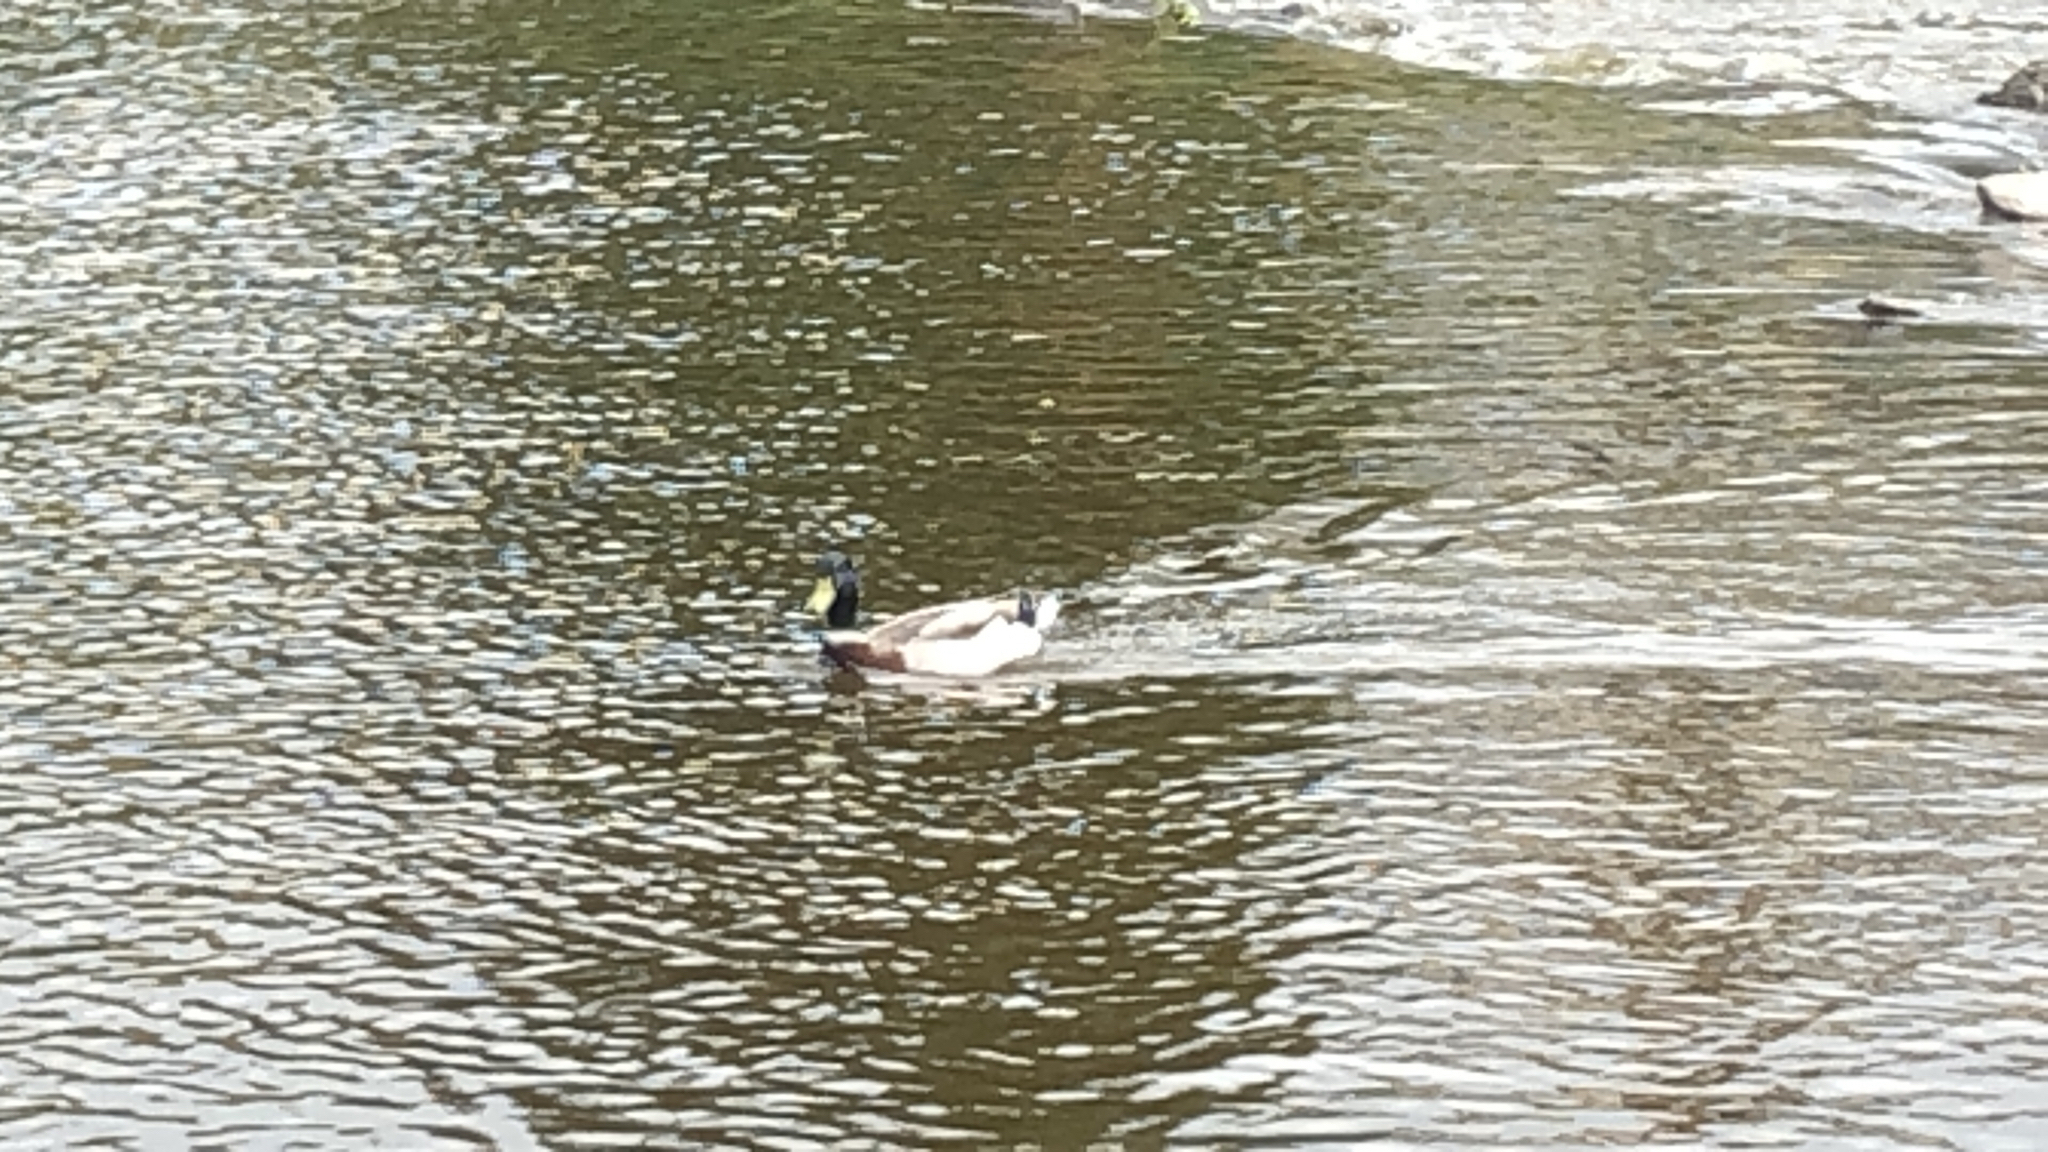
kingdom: Animalia
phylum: Chordata
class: Aves
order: Anseriformes
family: Anatidae
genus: Anas
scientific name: Anas platyrhynchos
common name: Mallard
